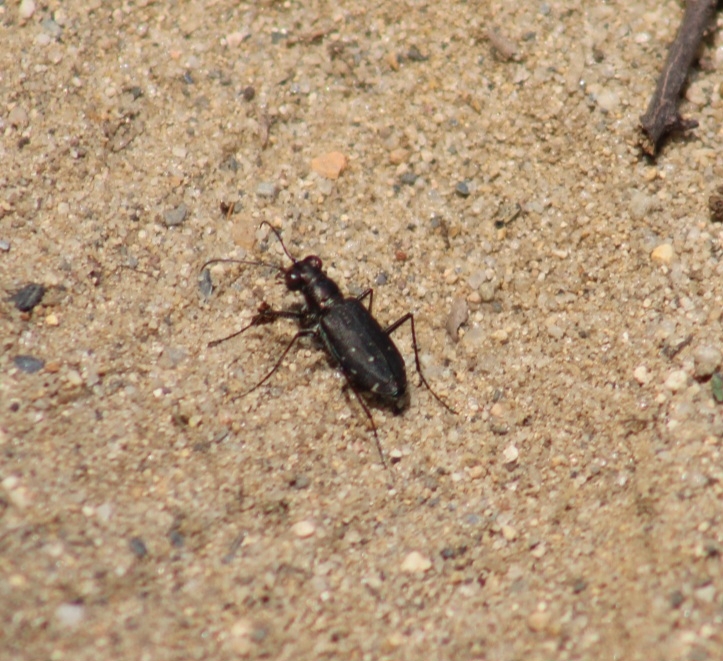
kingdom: Animalia
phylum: Arthropoda
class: Insecta
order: Coleoptera
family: Carabidae
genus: Cicindela
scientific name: Cicindela punctulata
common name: Punctured tiger beetle
